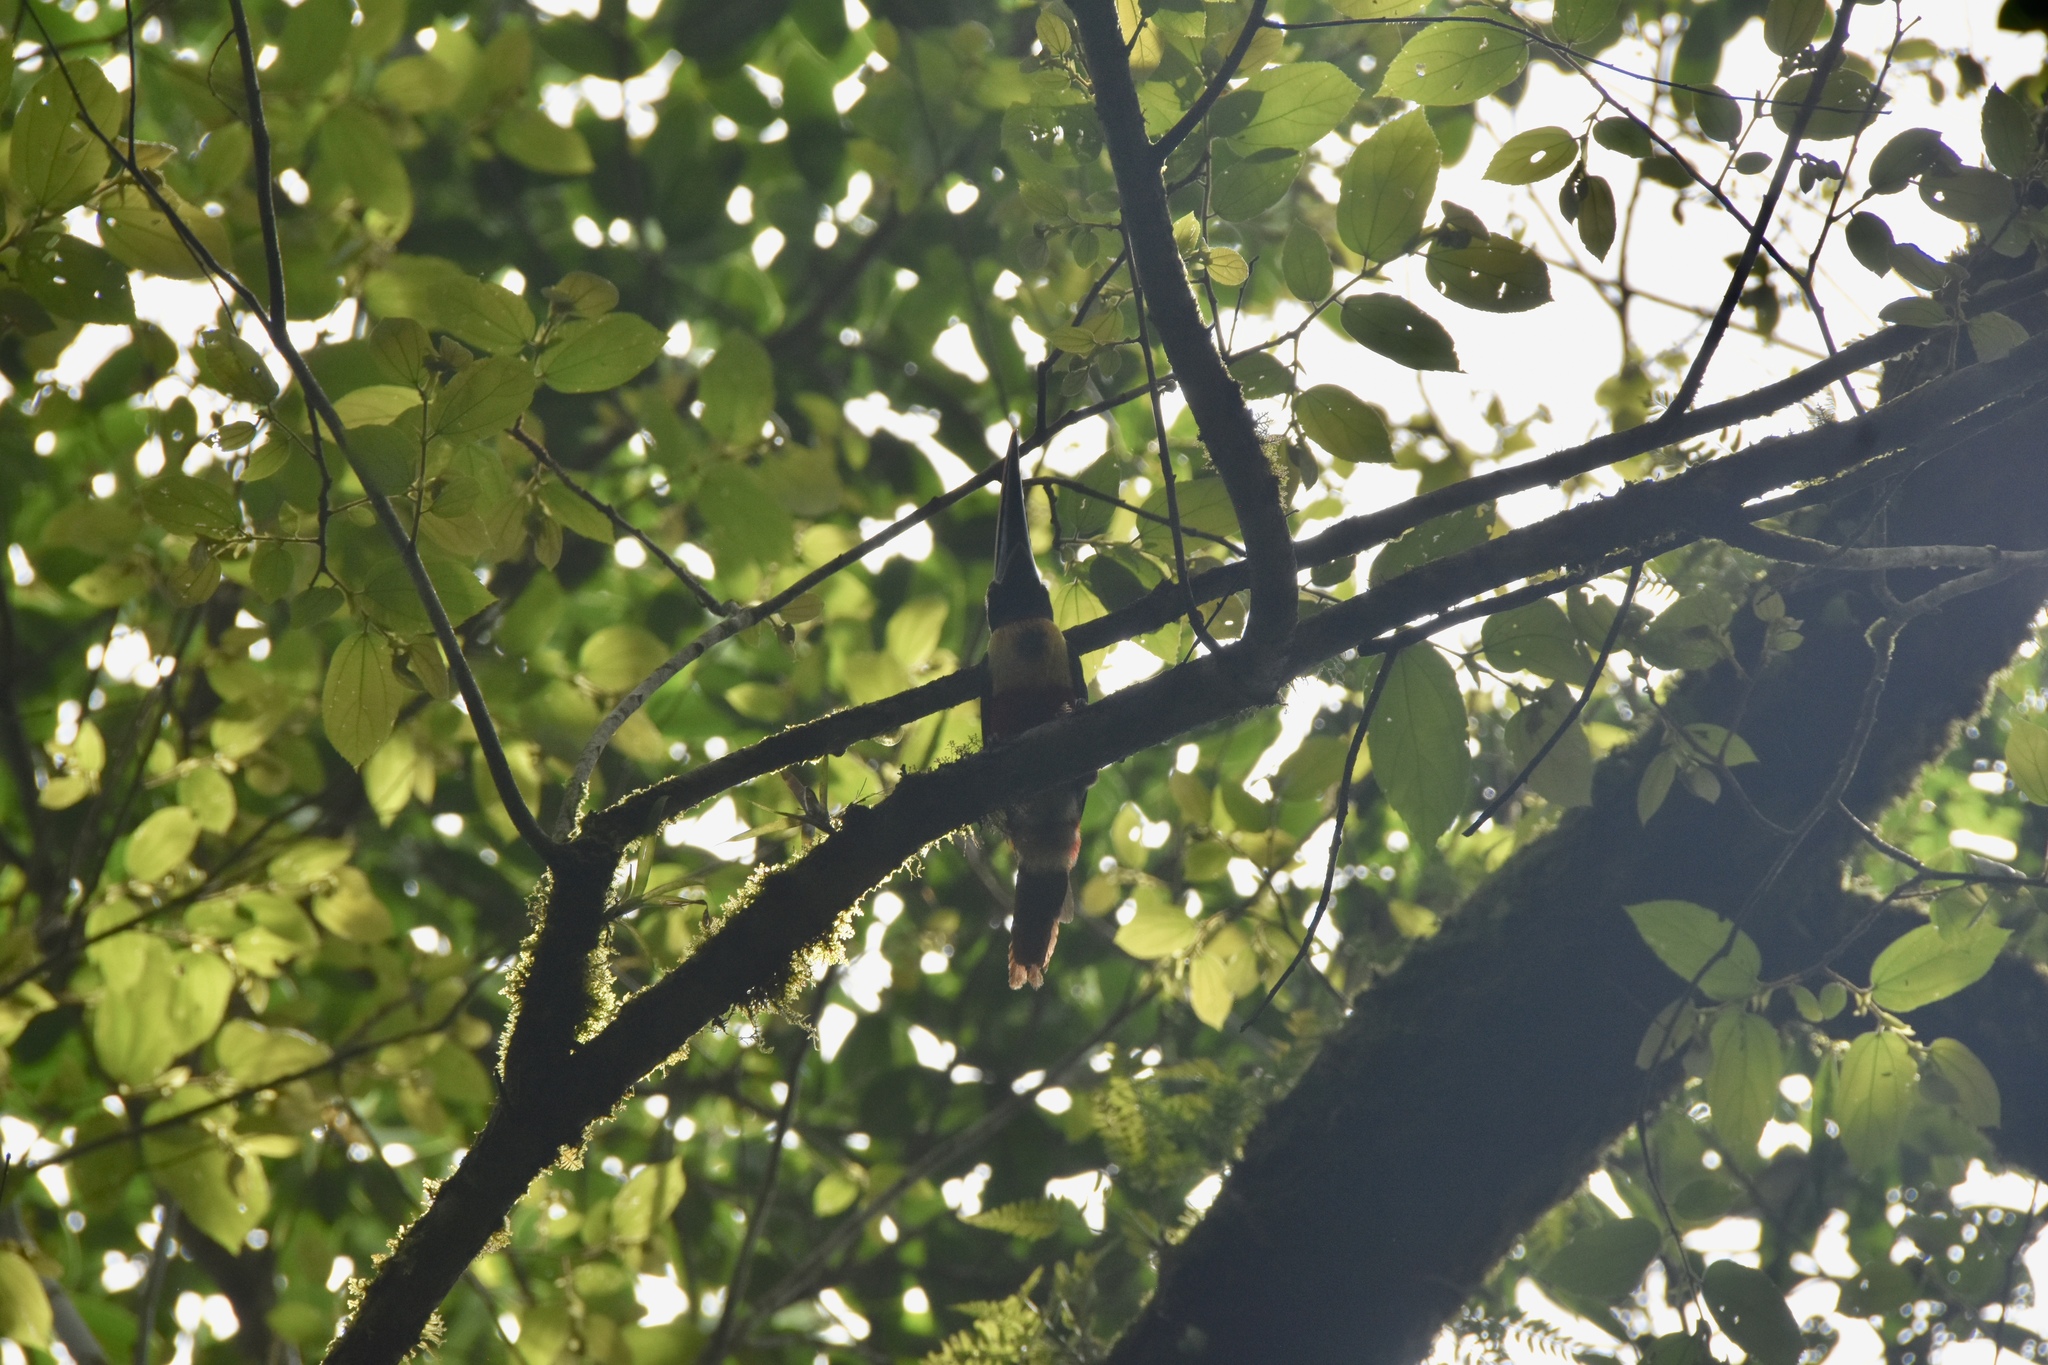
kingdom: Animalia
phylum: Chordata
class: Aves
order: Piciformes
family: Ramphastidae
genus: Pteroglossus
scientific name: Pteroglossus frantzii
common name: Fiery-billed aracari
